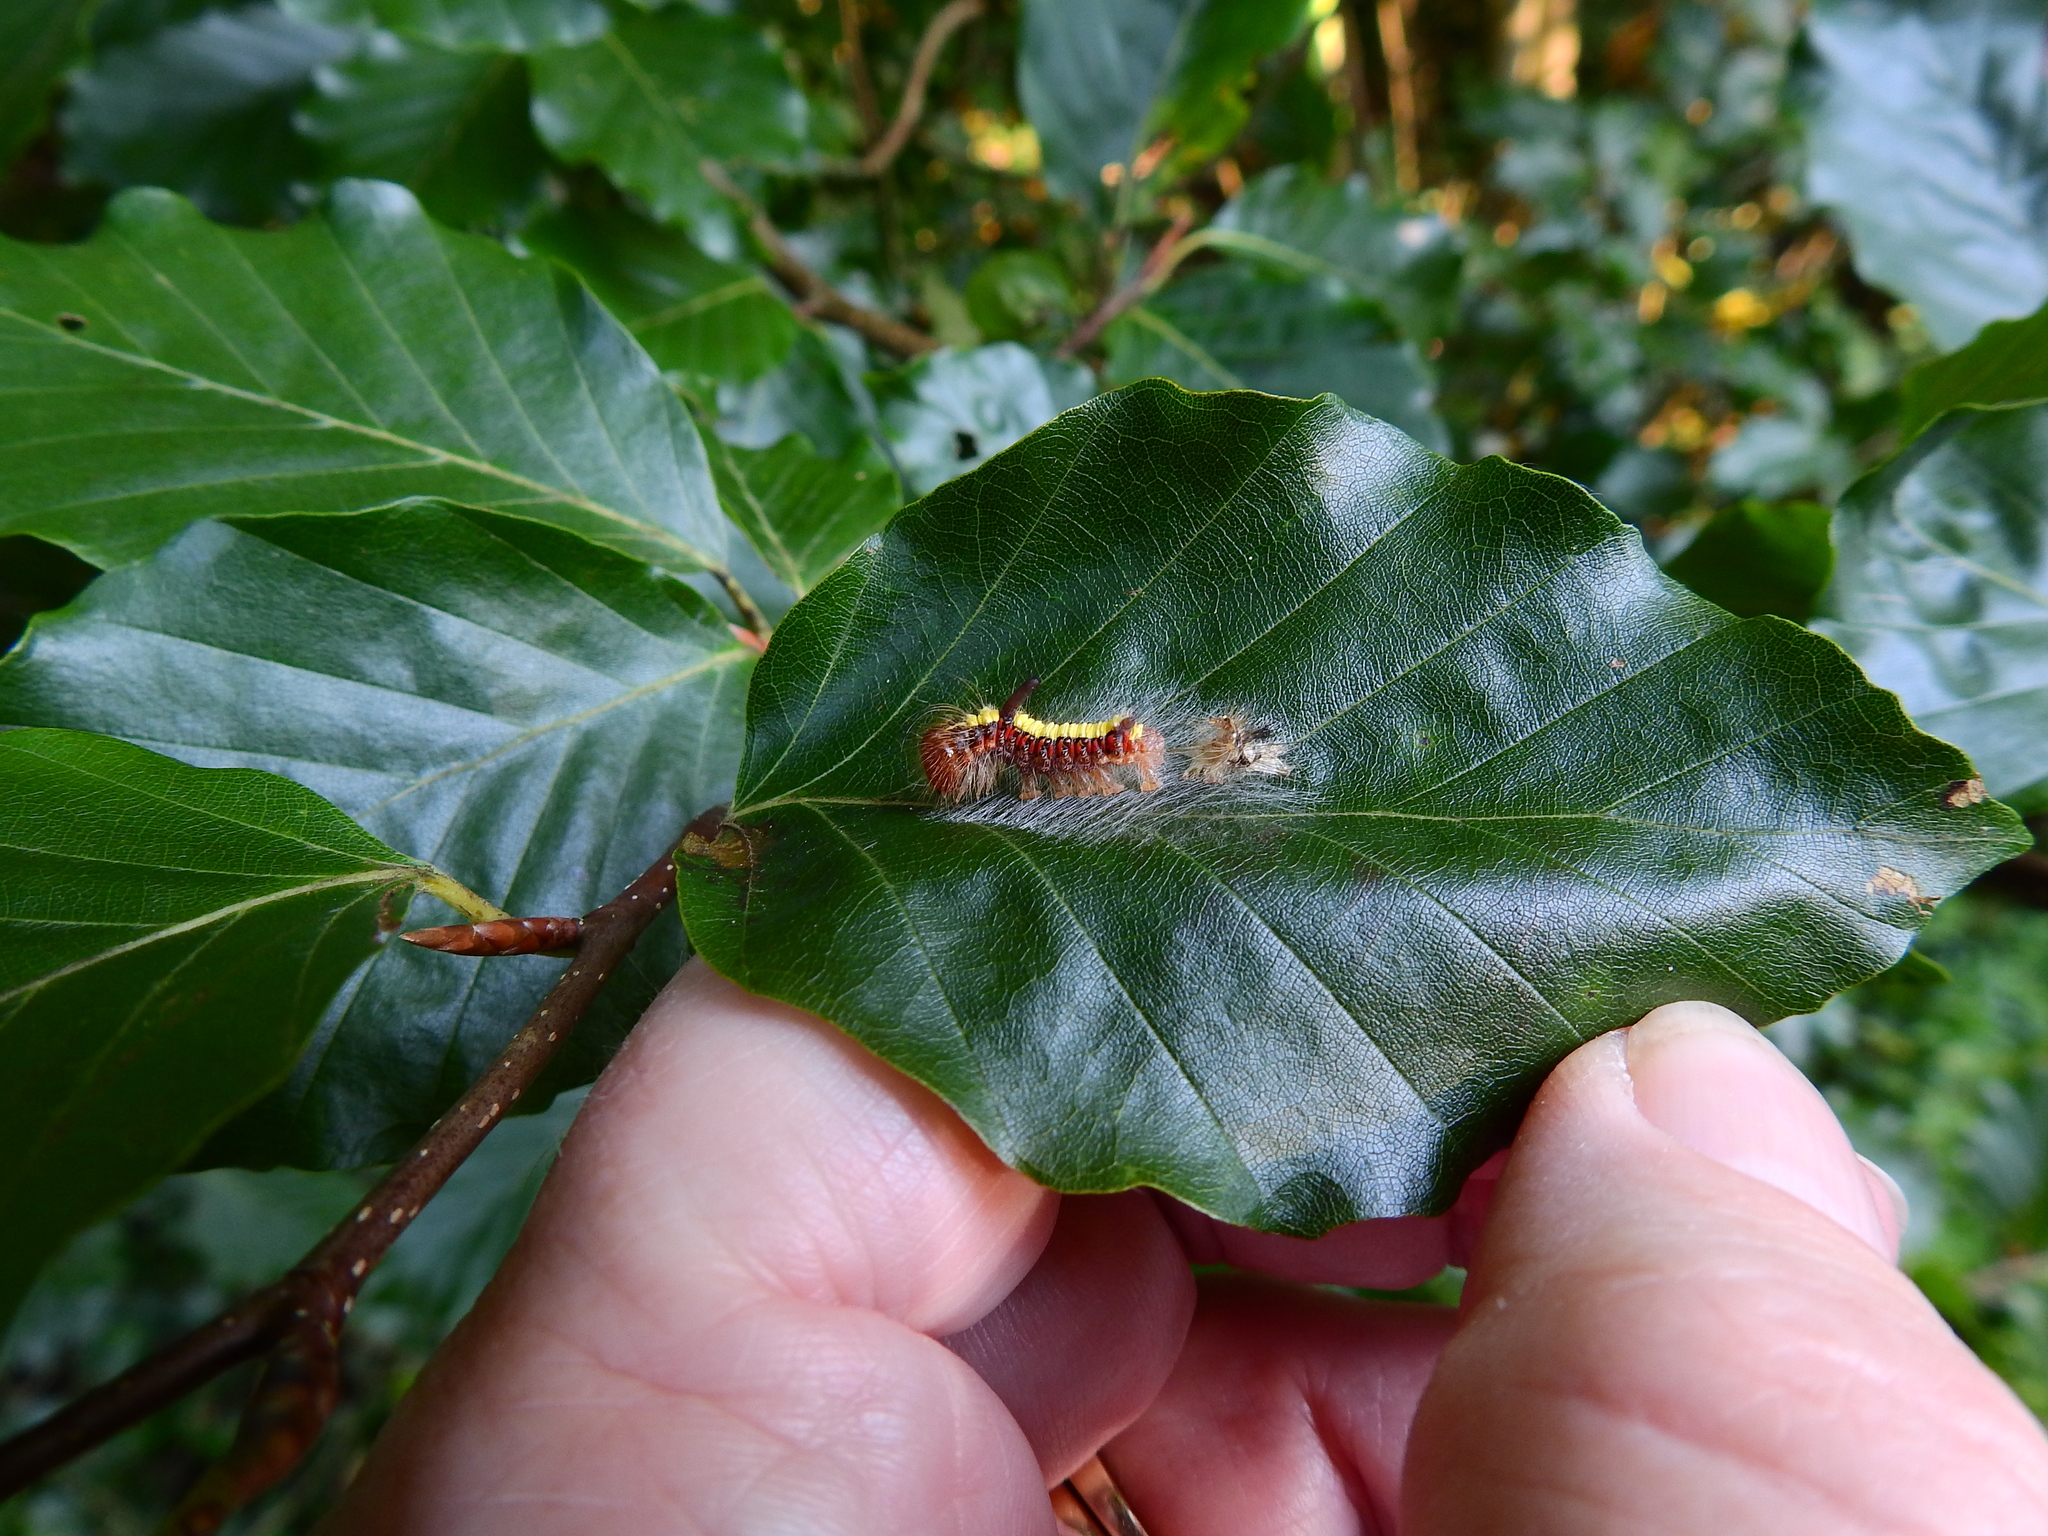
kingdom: Animalia
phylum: Arthropoda
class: Insecta
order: Lepidoptera
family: Noctuidae
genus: Acronicta
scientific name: Acronicta psi
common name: Grey dagger
